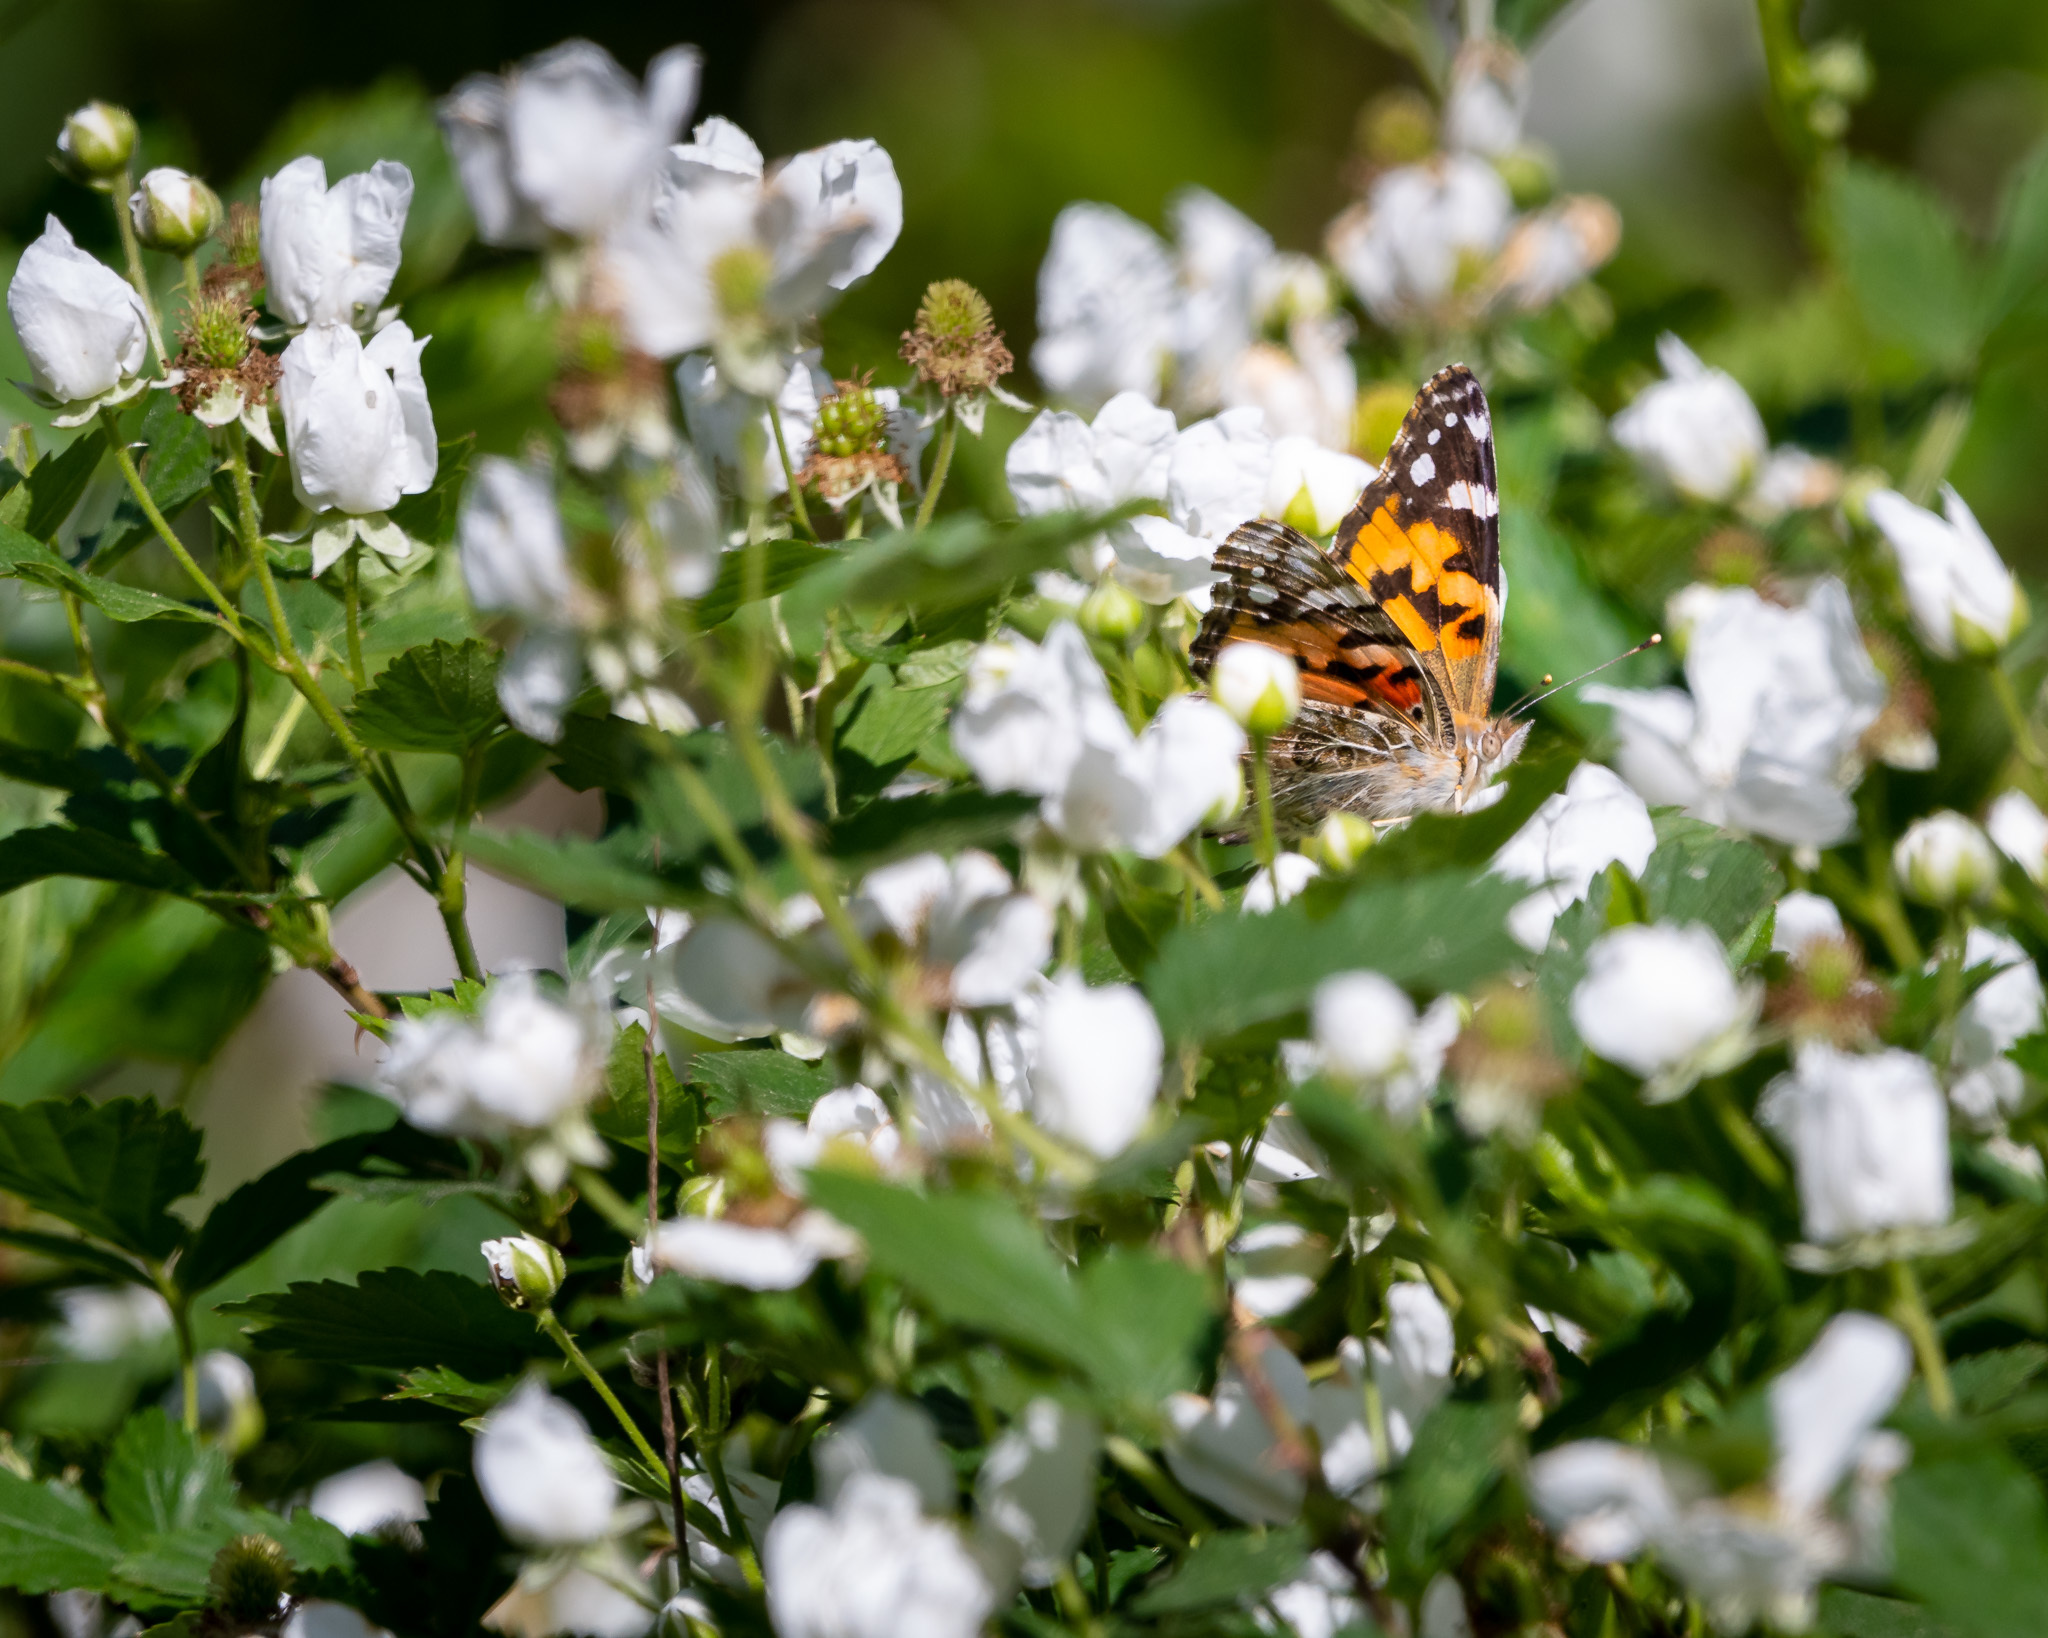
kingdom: Animalia
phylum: Arthropoda
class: Insecta
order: Lepidoptera
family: Nymphalidae
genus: Vanessa
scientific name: Vanessa cardui
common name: Painted lady
